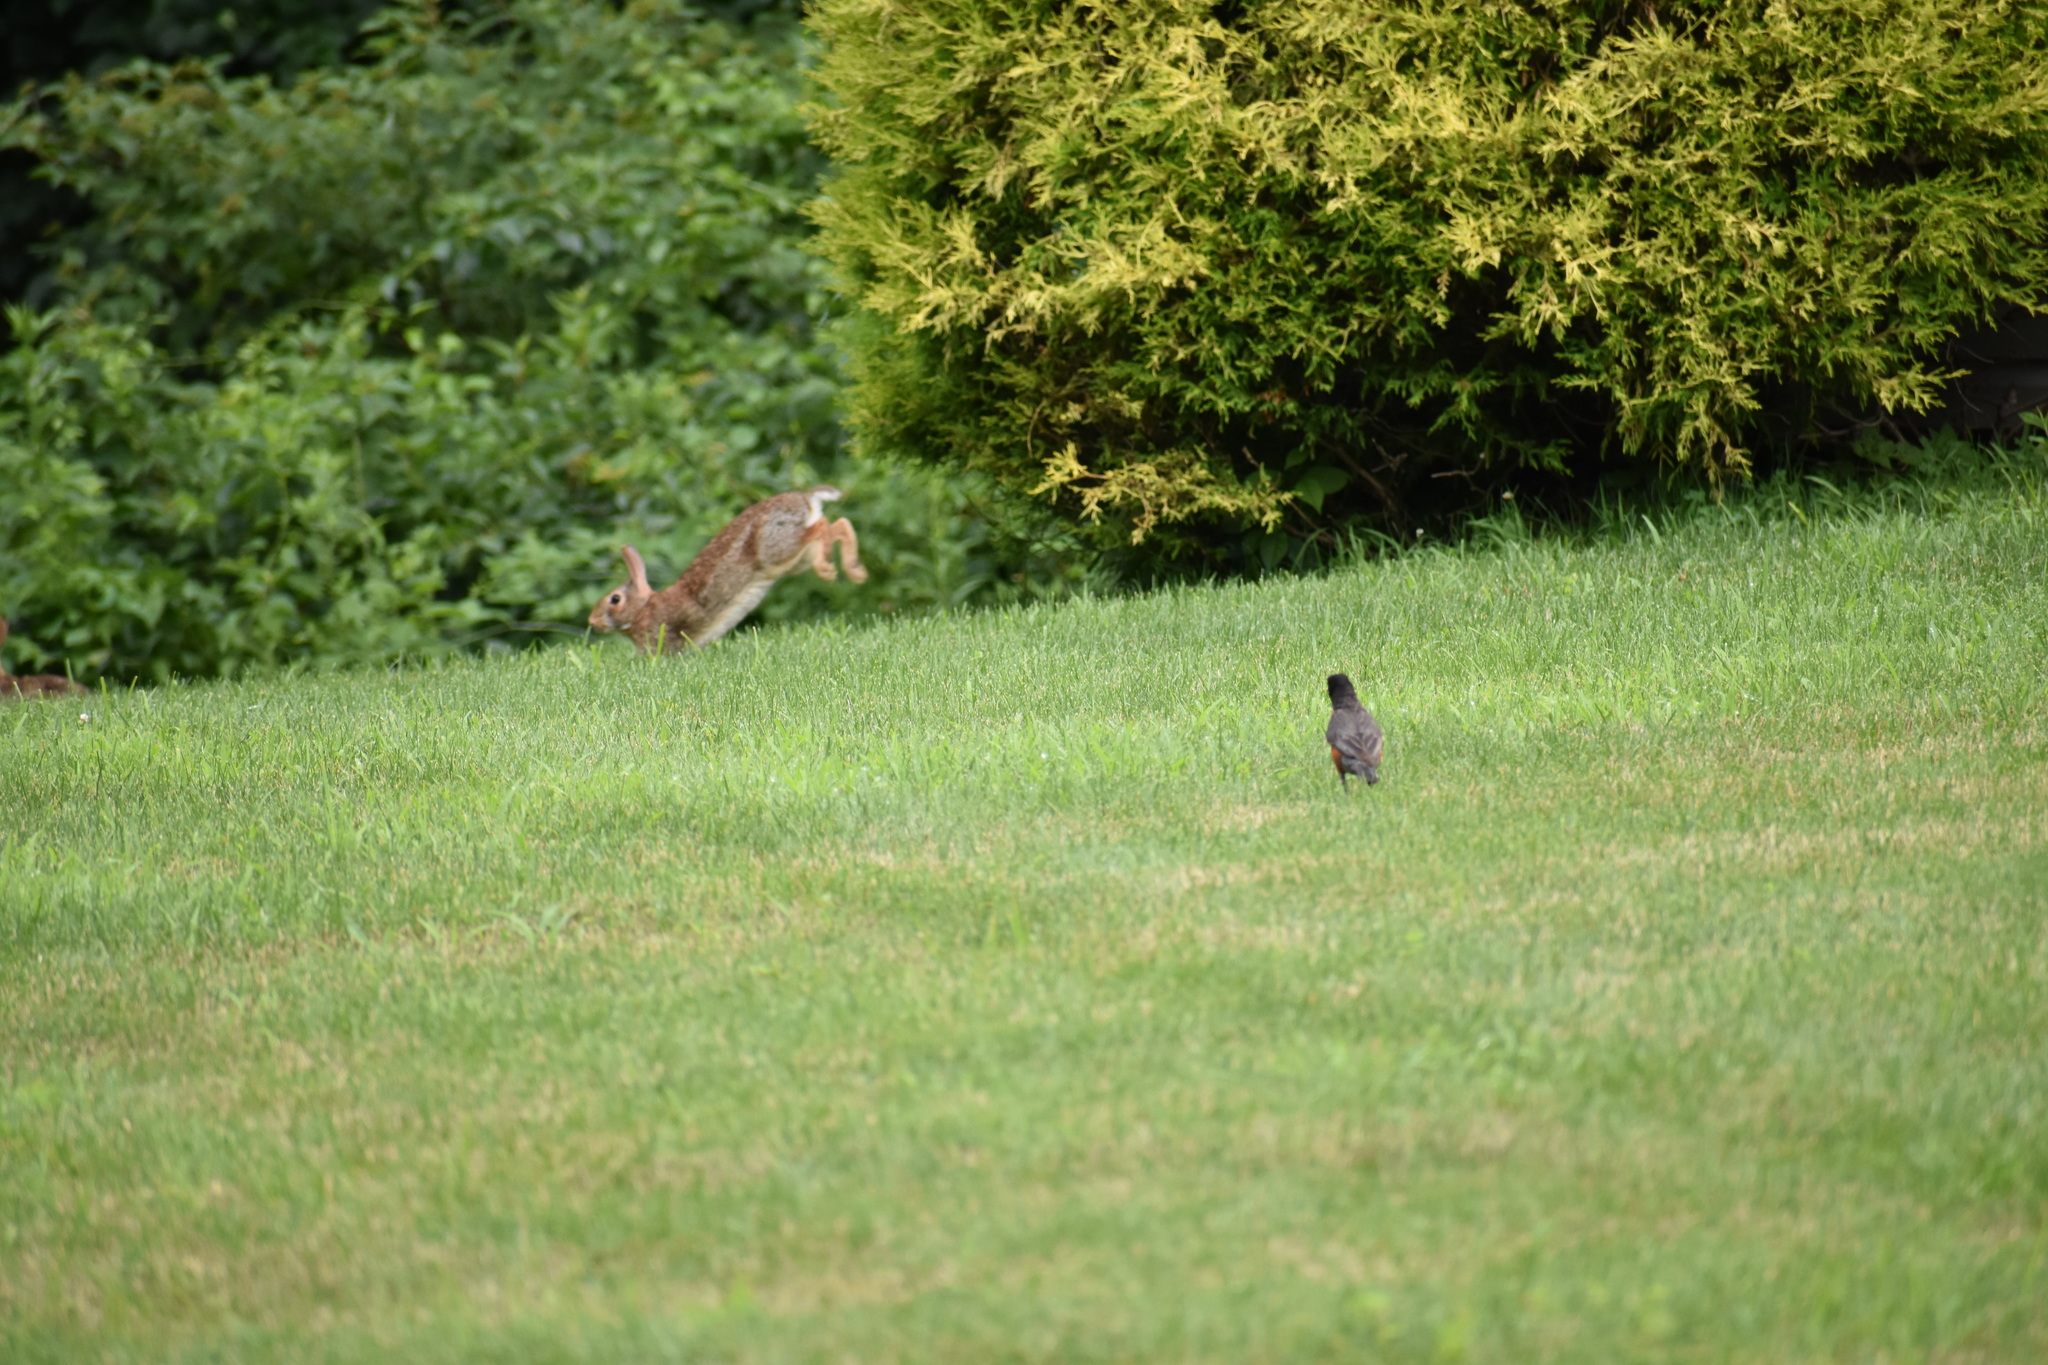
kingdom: Animalia
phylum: Chordata
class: Mammalia
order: Lagomorpha
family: Leporidae
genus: Sylvilagus
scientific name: Sylvilagus floridanus
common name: Eastern cottontail
